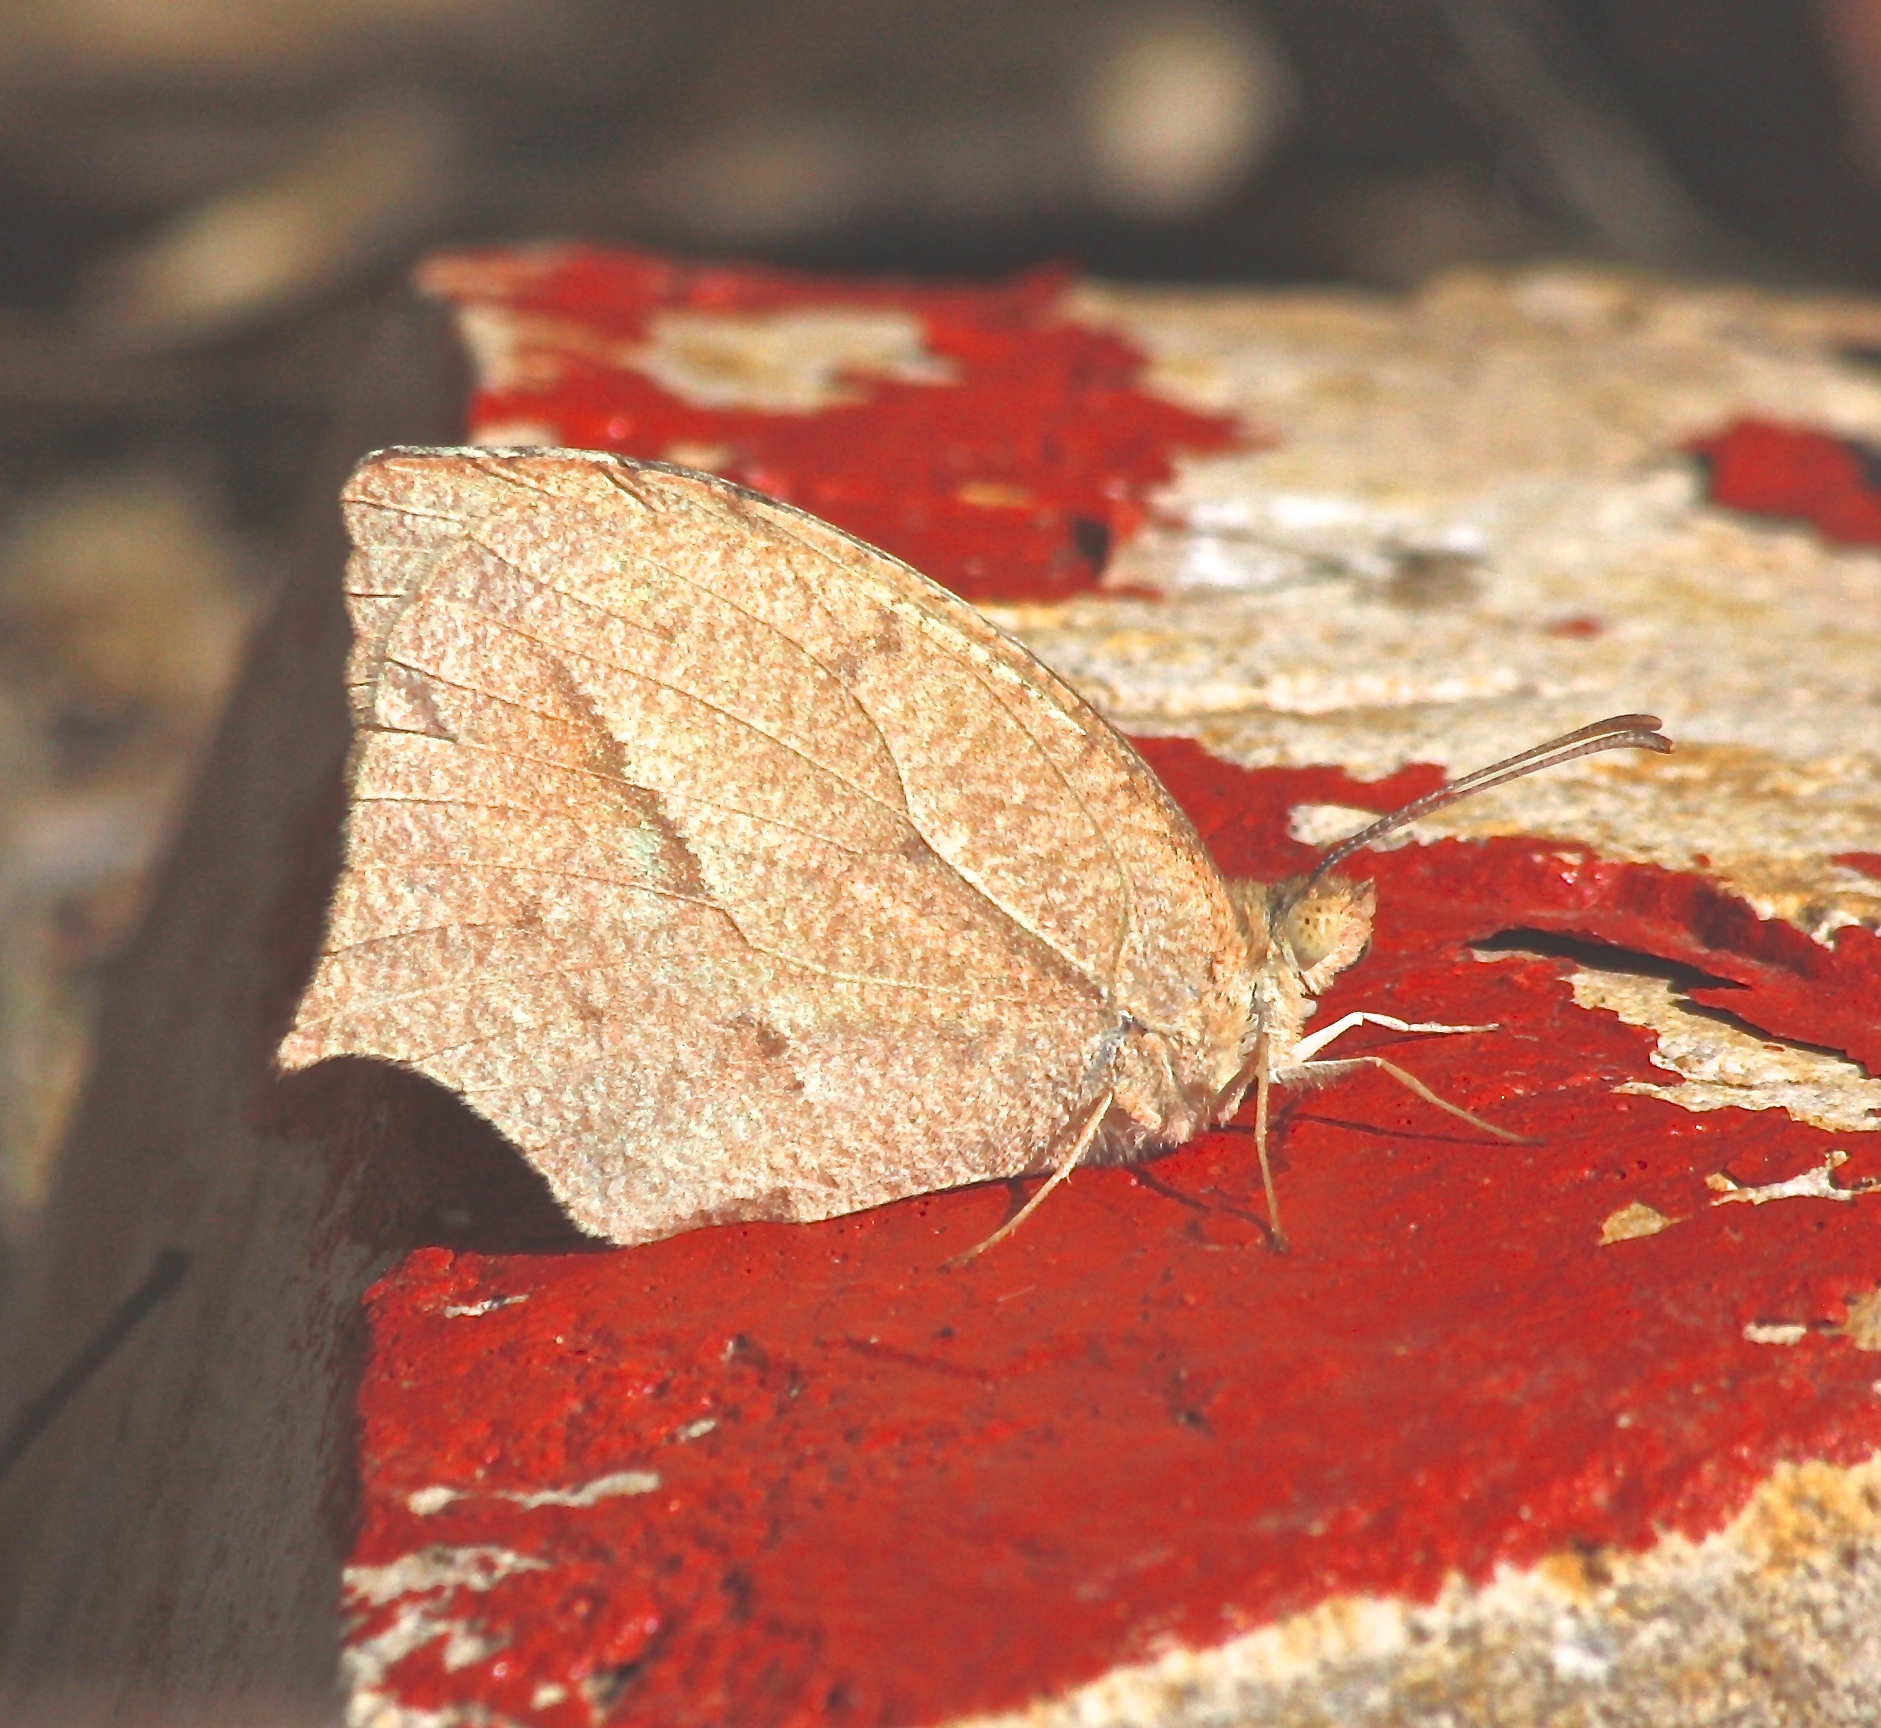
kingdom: Animalia
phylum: Arthropoda
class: Insecta
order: Lepidoptera
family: Pieridae
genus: Abaeis
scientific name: Abaeis mexicana
